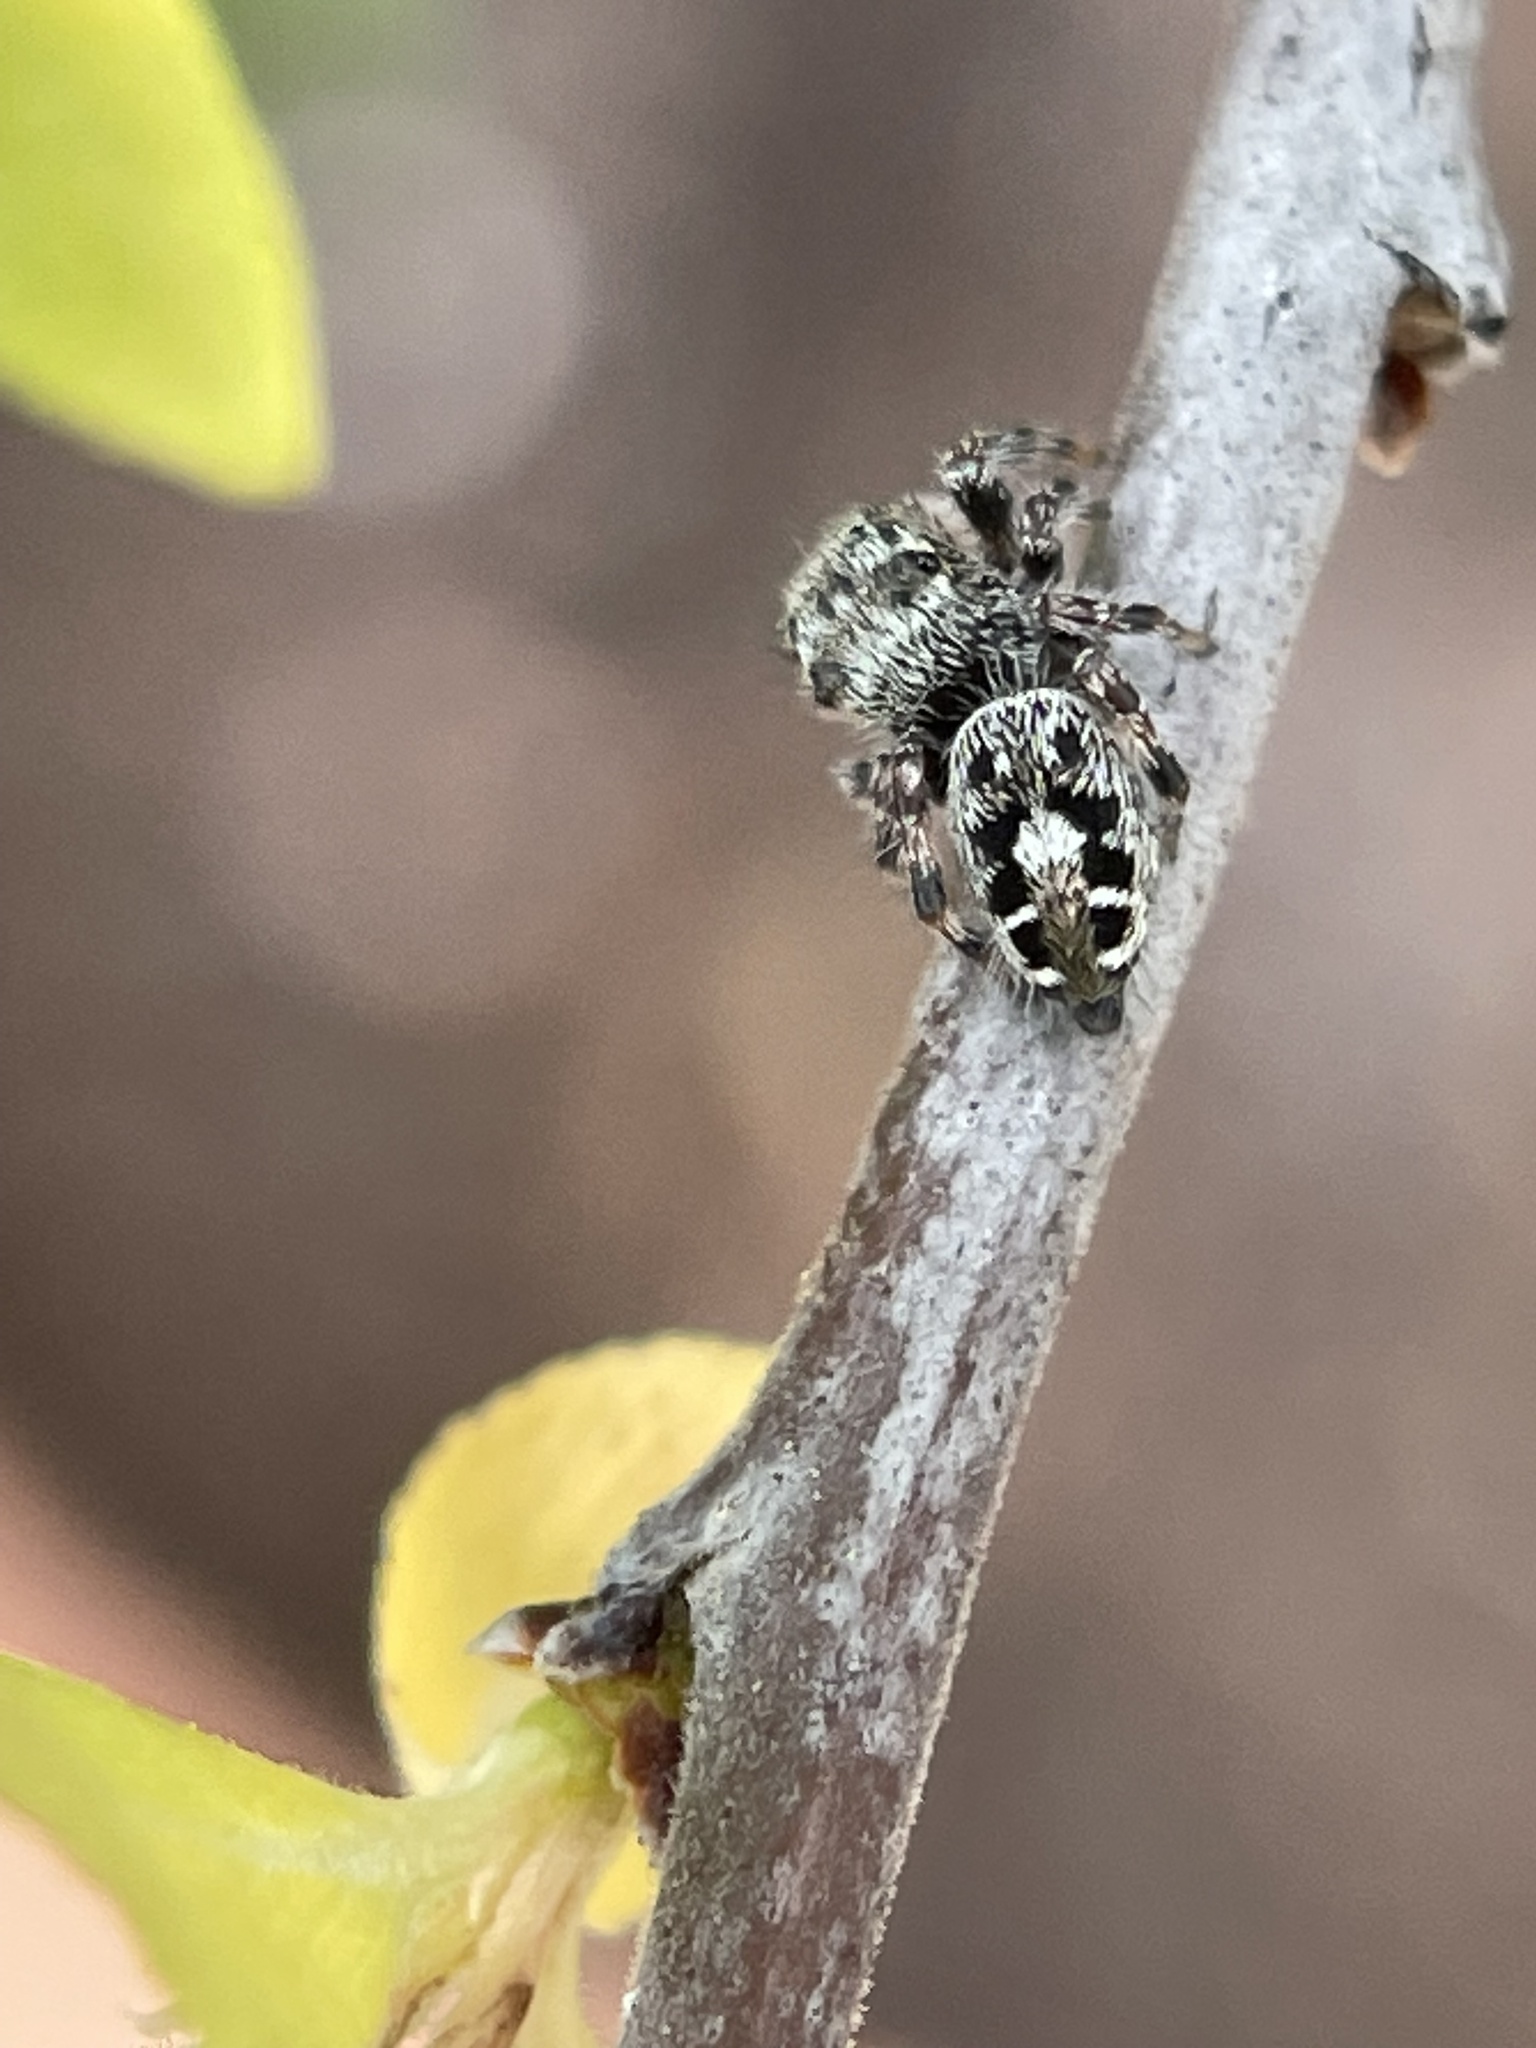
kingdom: Animalia
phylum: Arthropoda
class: Arachnida
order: Araneae
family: Salticidae
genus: Phidippus
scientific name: Phidippus putnami
